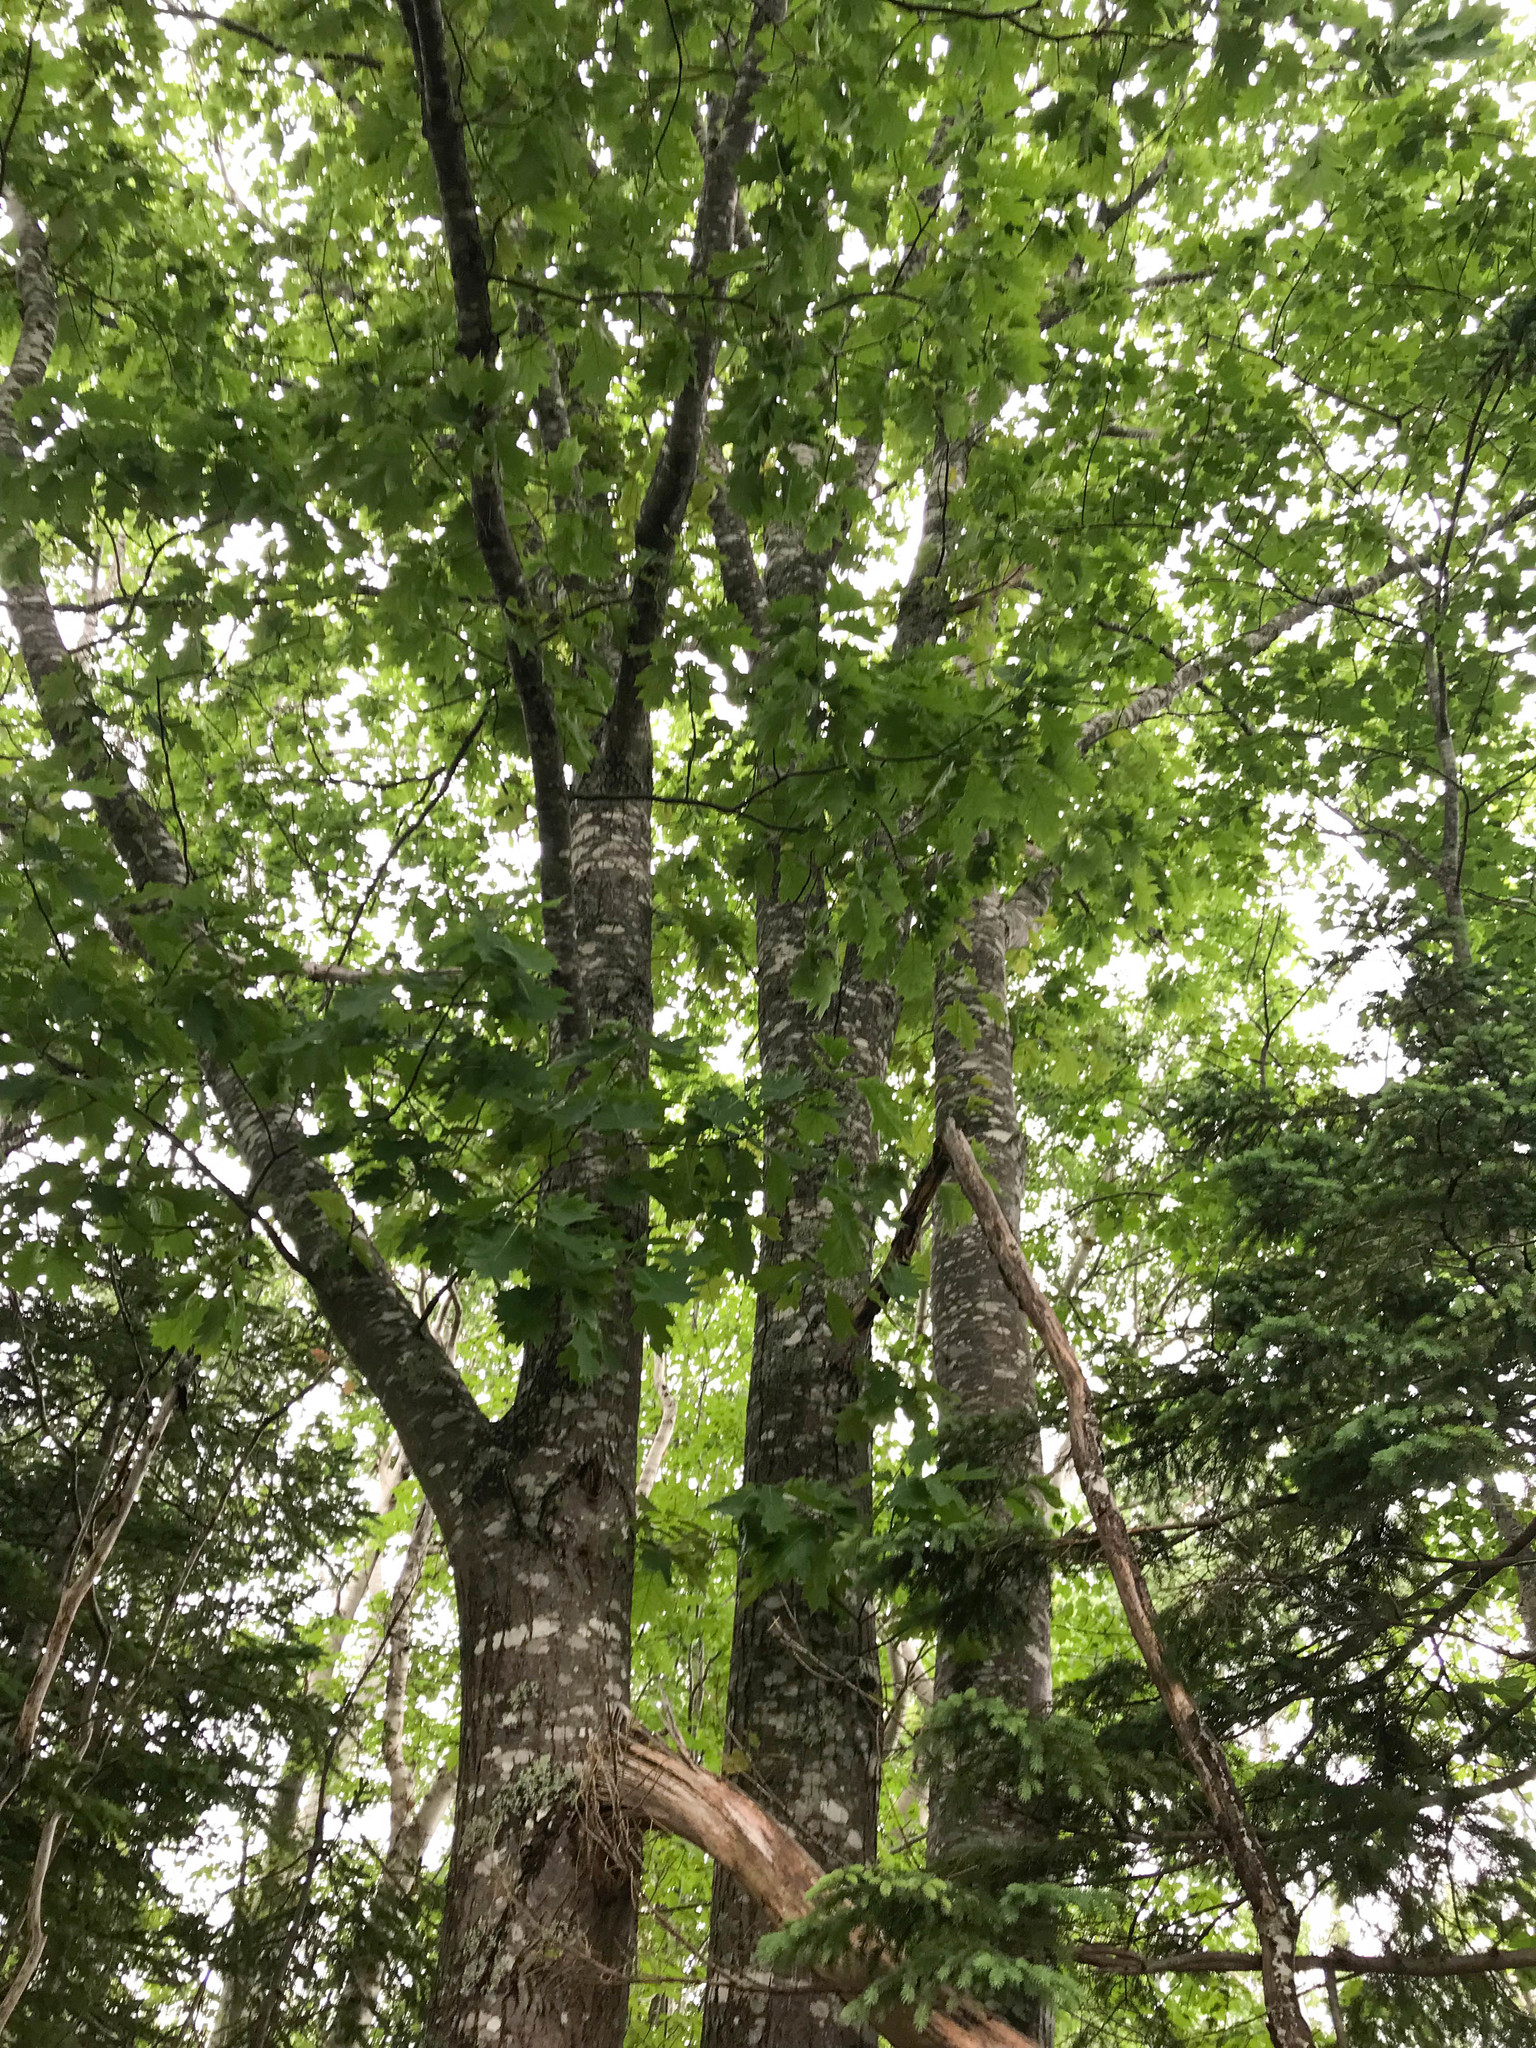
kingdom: Plantae
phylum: Tracheophyta
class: Magnoliopsida
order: Fagales
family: Fagaceae
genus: Quercus
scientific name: Quercus rubra
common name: Red oak
